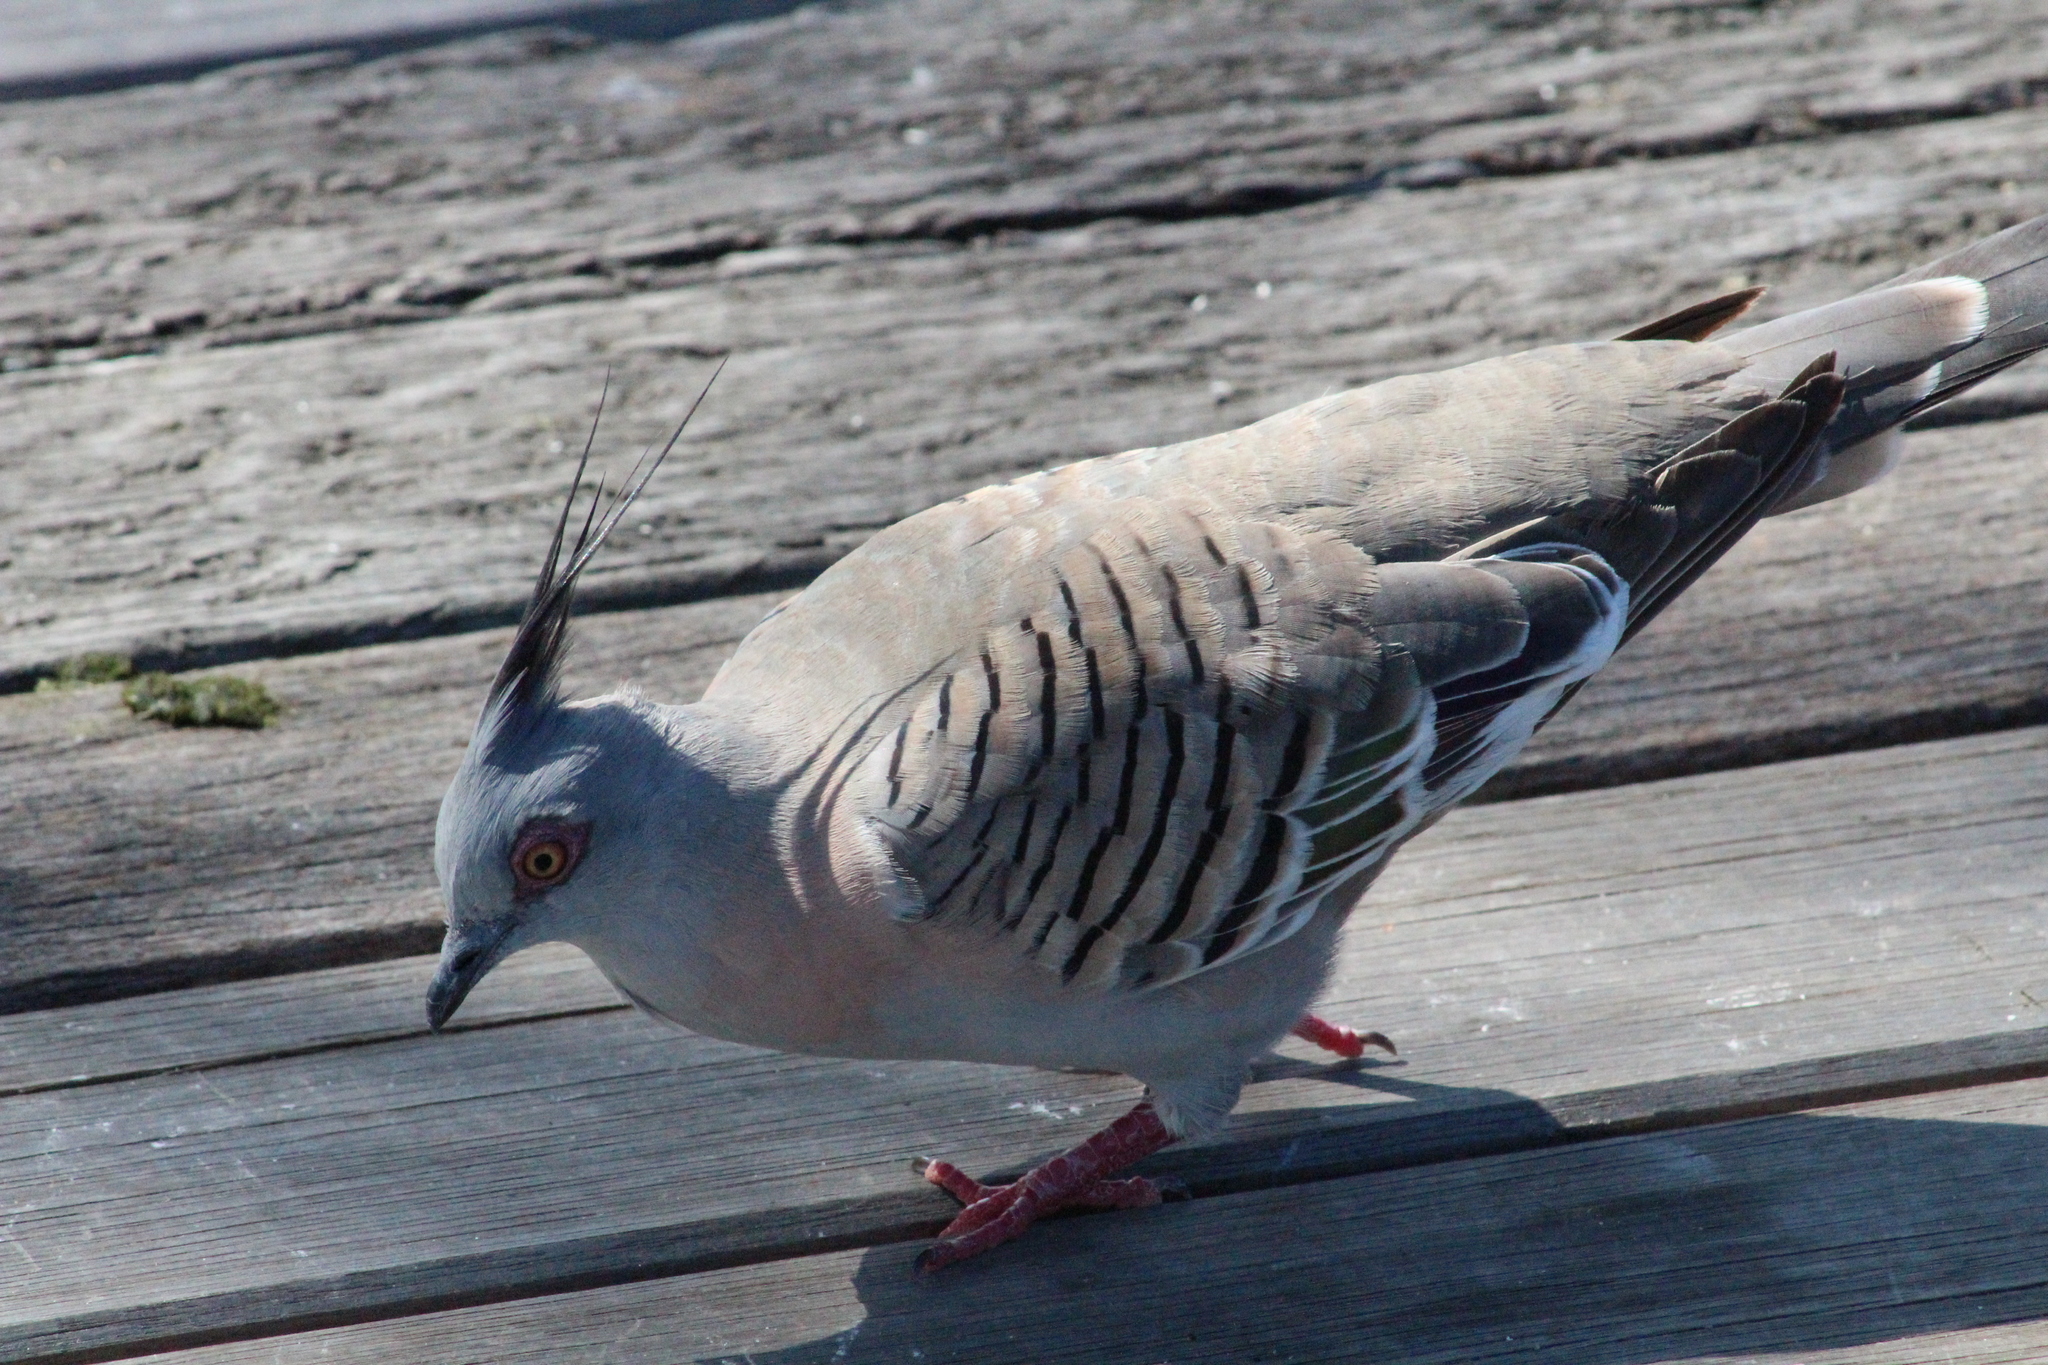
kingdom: Animalia
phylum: Chordata
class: Aves
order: Columbiformes
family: Columbidae
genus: Ocyphaps
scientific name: Ocyphaps lophotes
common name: Crested pigeon
